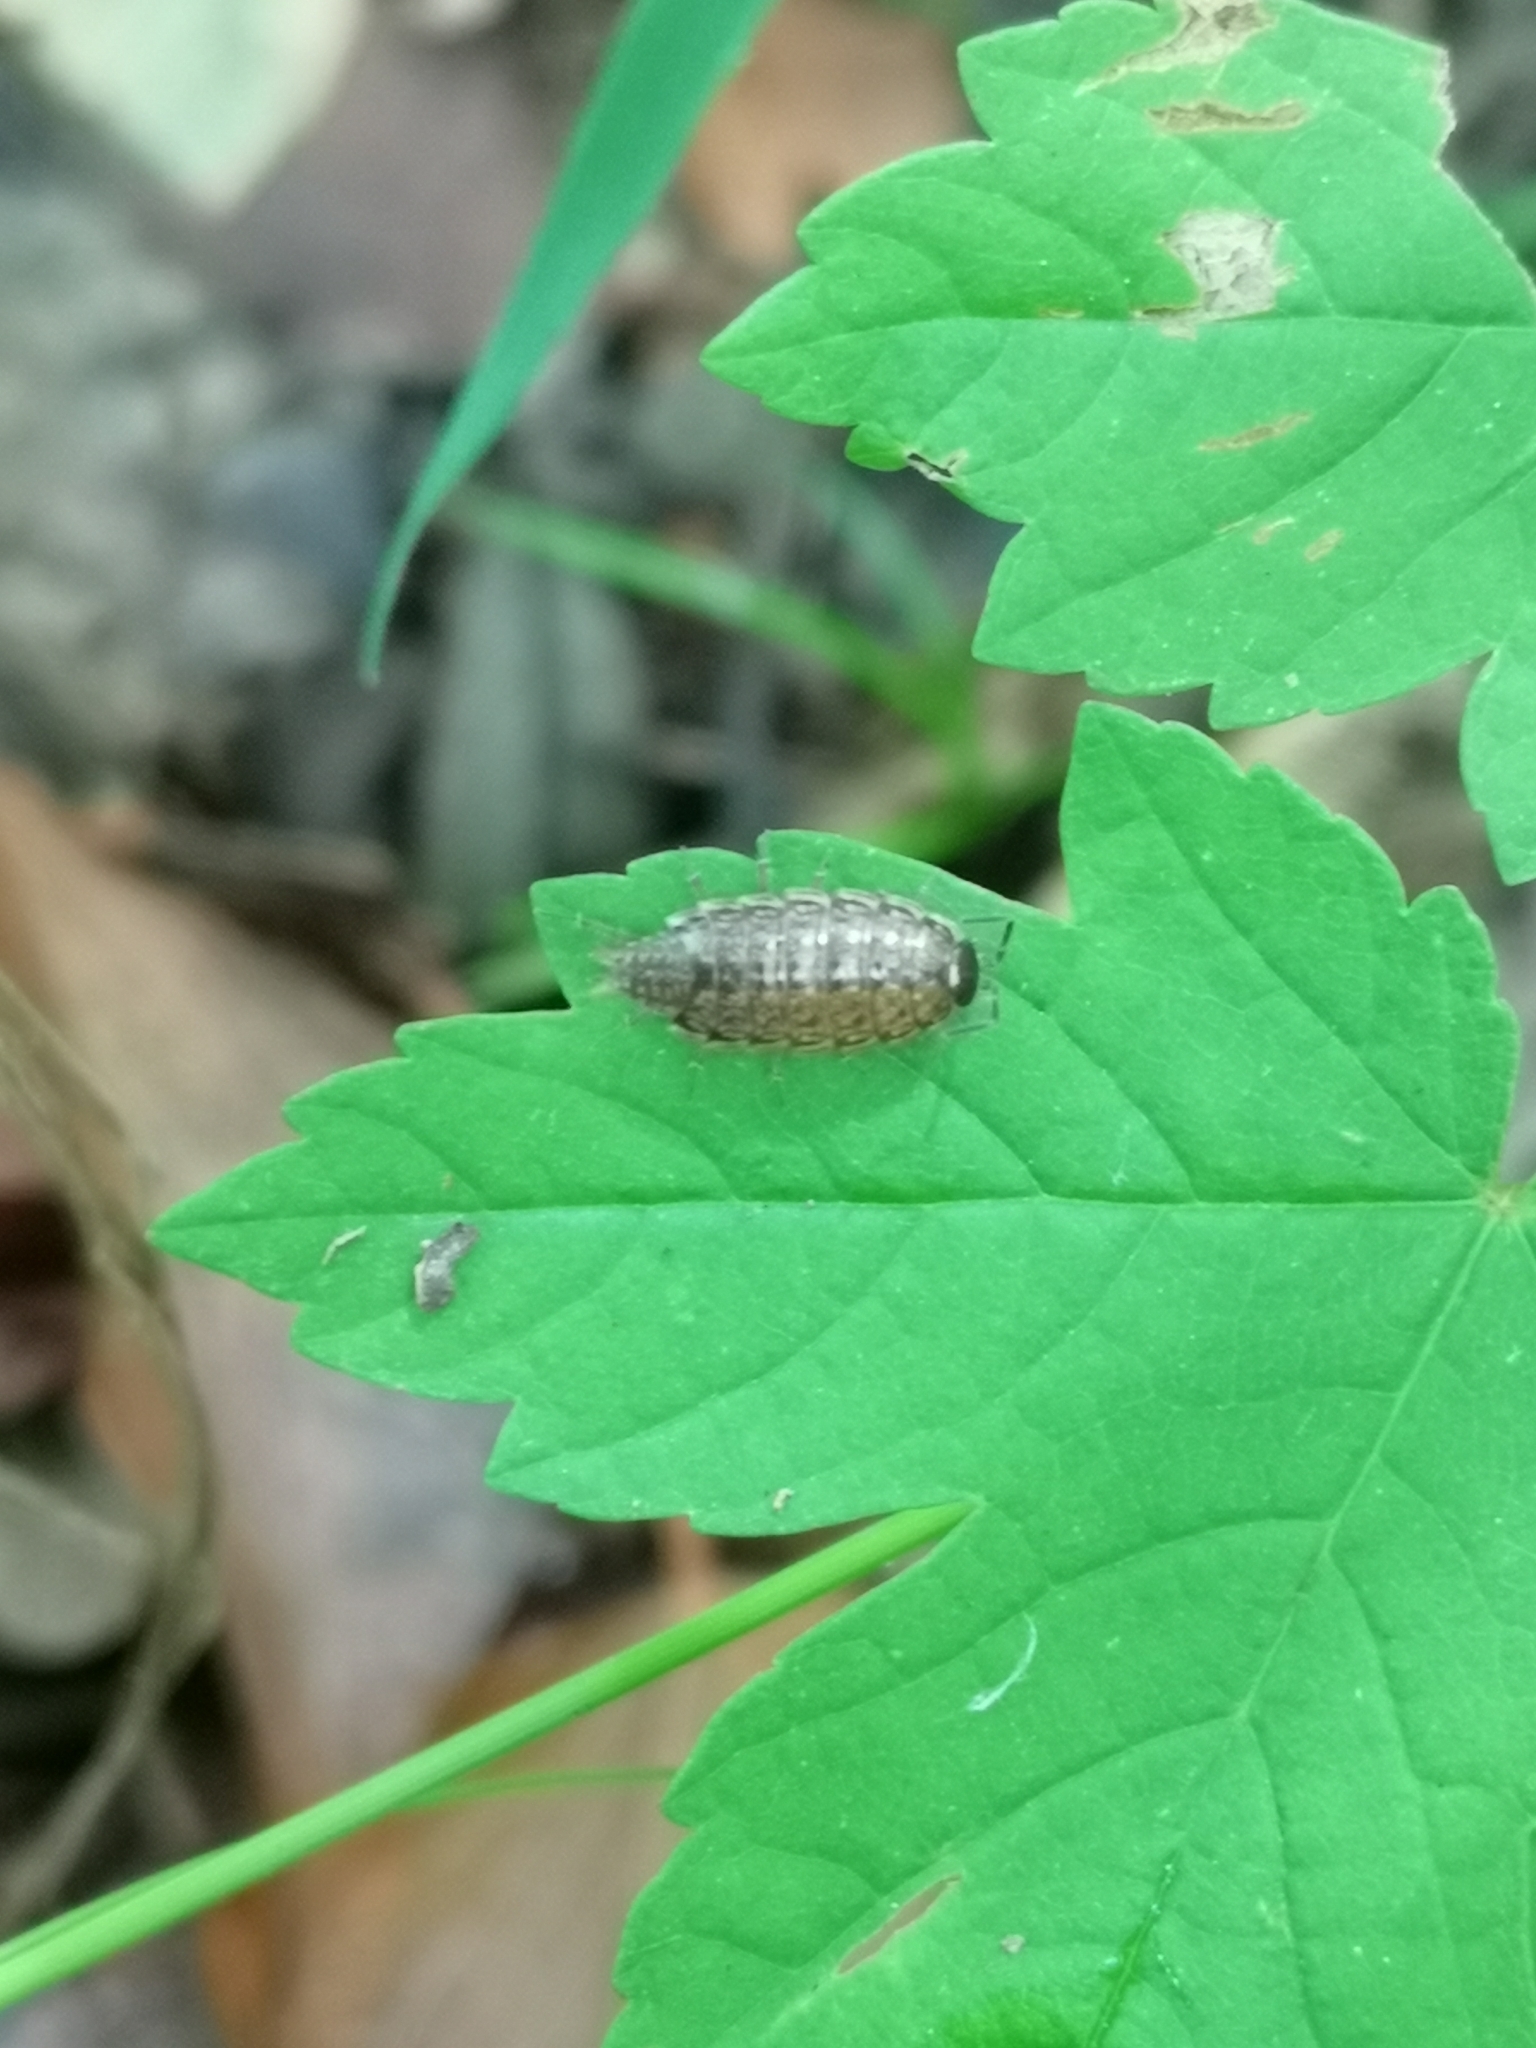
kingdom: Animalia
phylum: Arthropoda
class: Malacostraca
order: Isopoda
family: Philosciidae
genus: Philoscia
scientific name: Philoscia muscorum
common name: Common striped woodlouse
